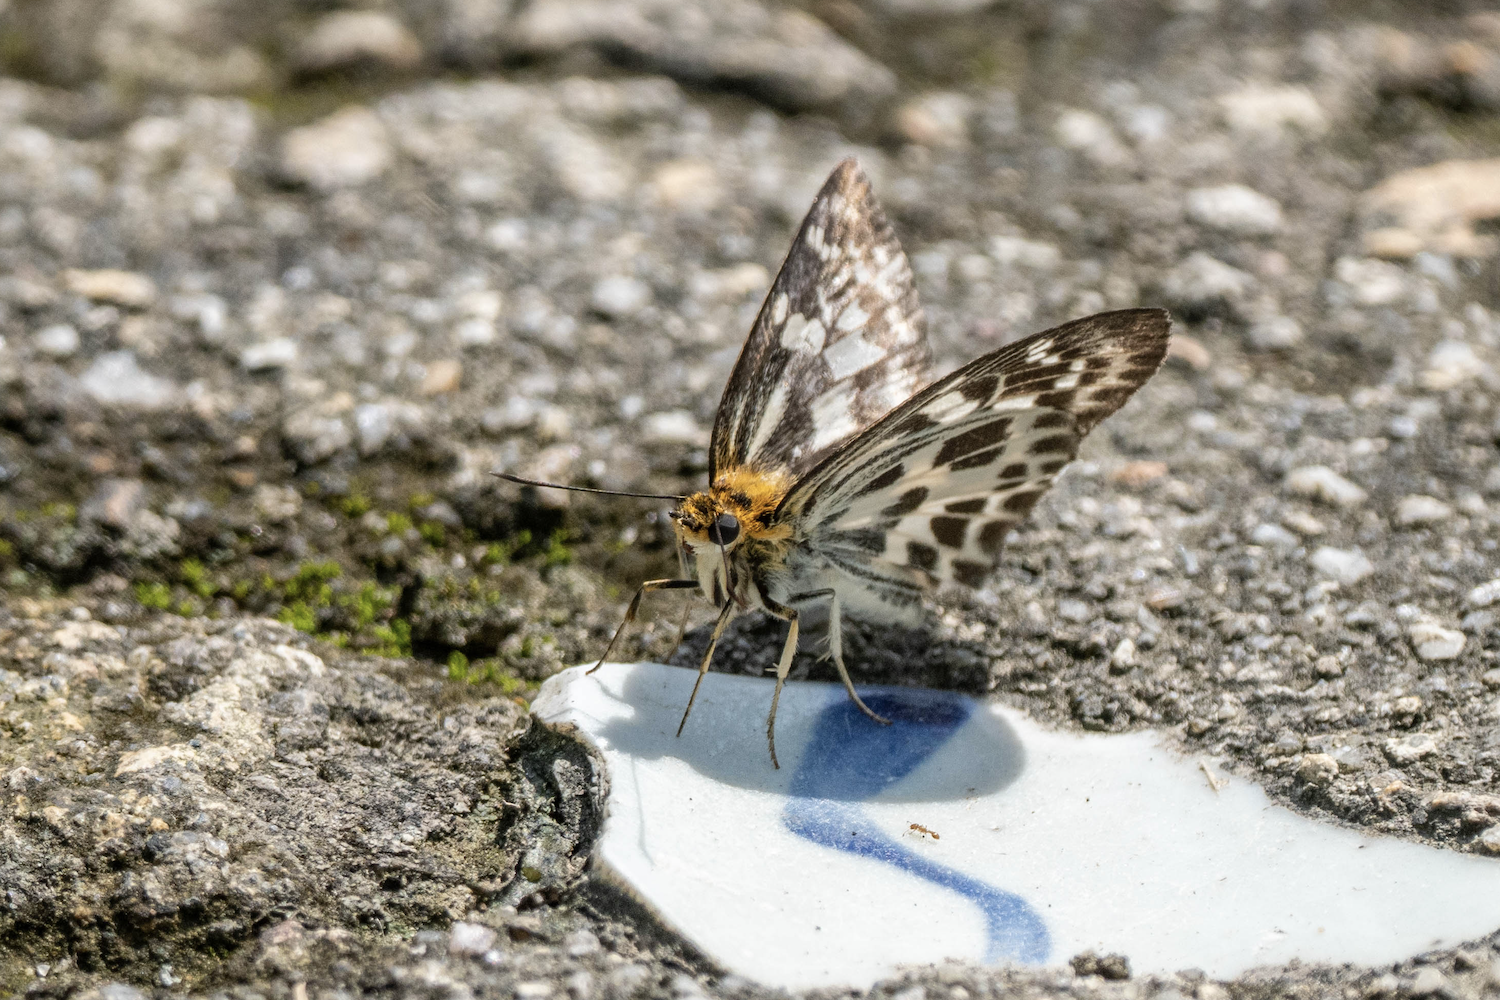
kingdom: Animalia
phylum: Arthropoda
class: Insecta
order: Lepidoptera
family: Hesperiidae
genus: Abraximorpha
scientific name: Abraximorpha davidii
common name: Magpie flat
